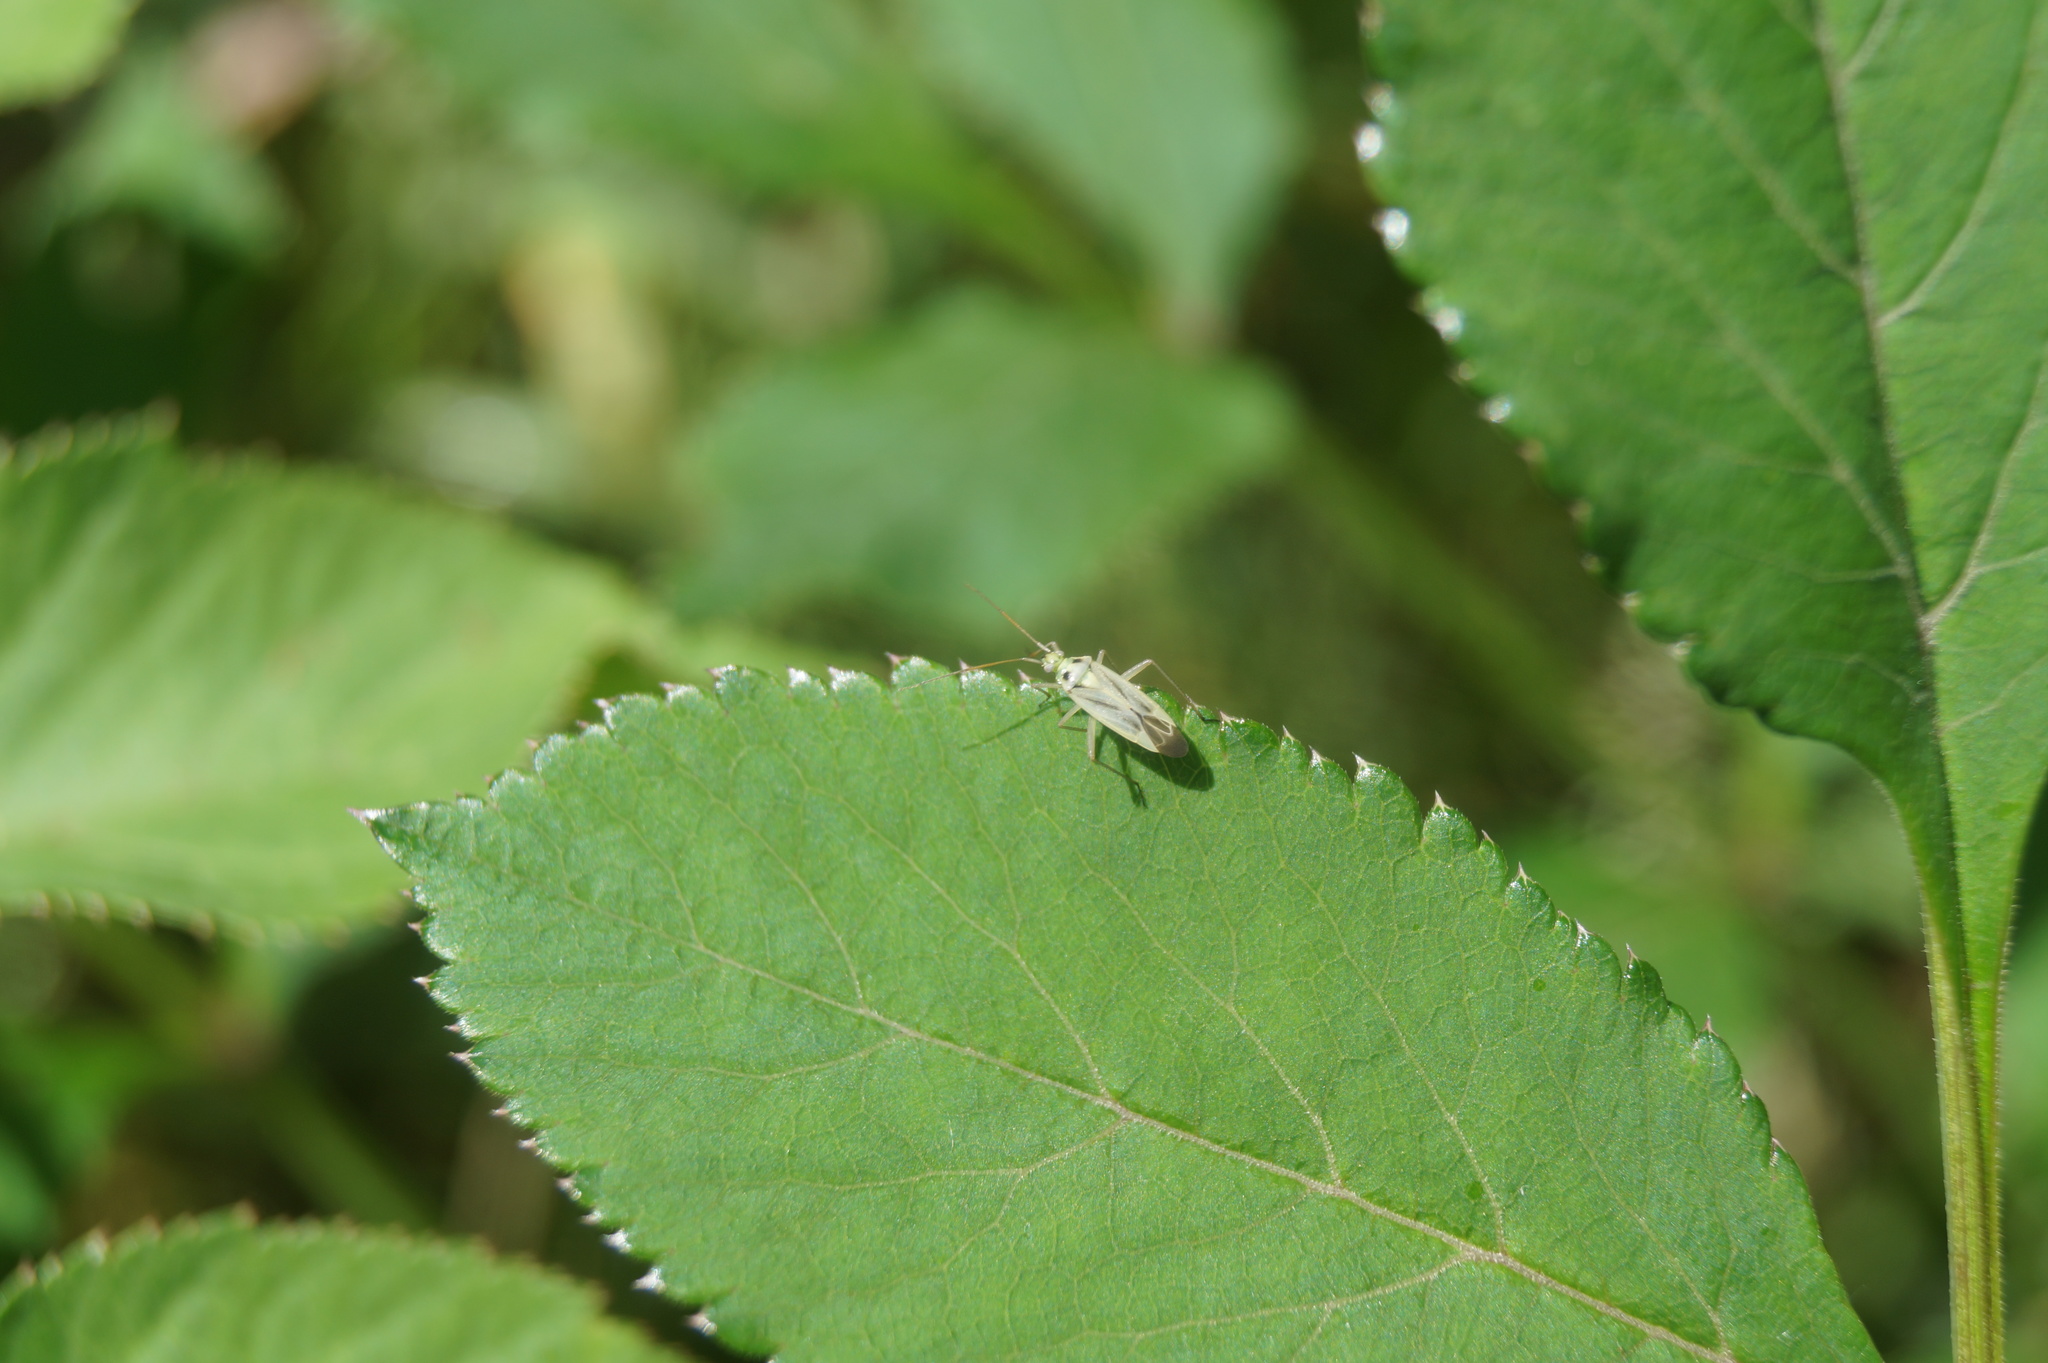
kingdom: Animalia
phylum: Arthropoda
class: Insecta
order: Hemiptera
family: Miridae
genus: Stenotus
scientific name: Stenotus binotatus
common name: Plant bug
